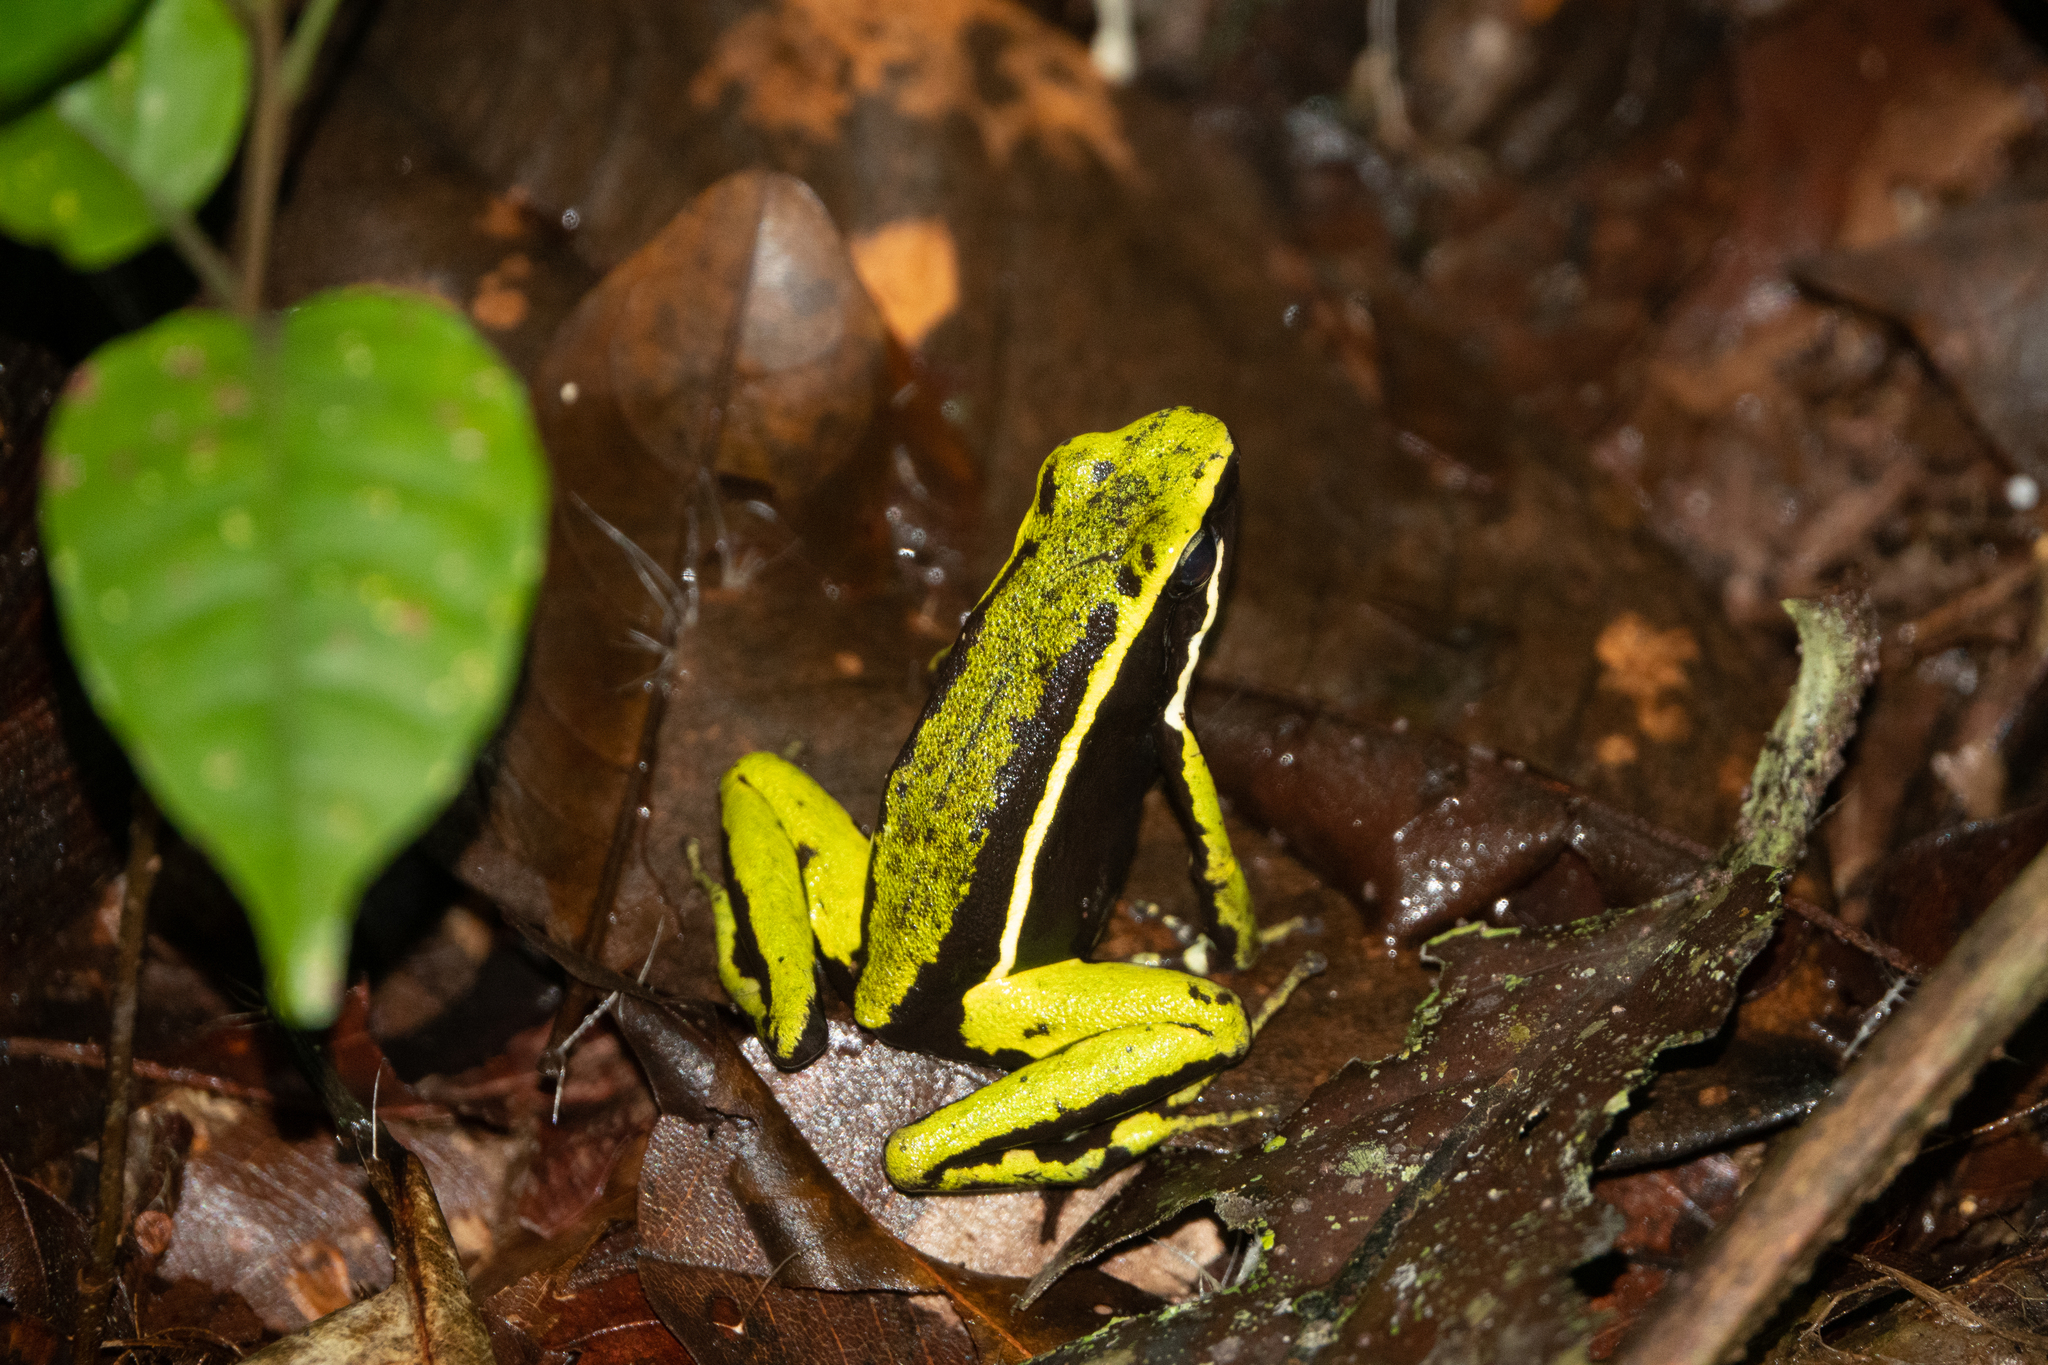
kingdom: Animalia
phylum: Chordata
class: Amphibia
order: Anura
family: Dendrobatidae
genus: Ameerega
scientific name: Ameerega trivittata
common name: Three-striped arrow-poison frog
